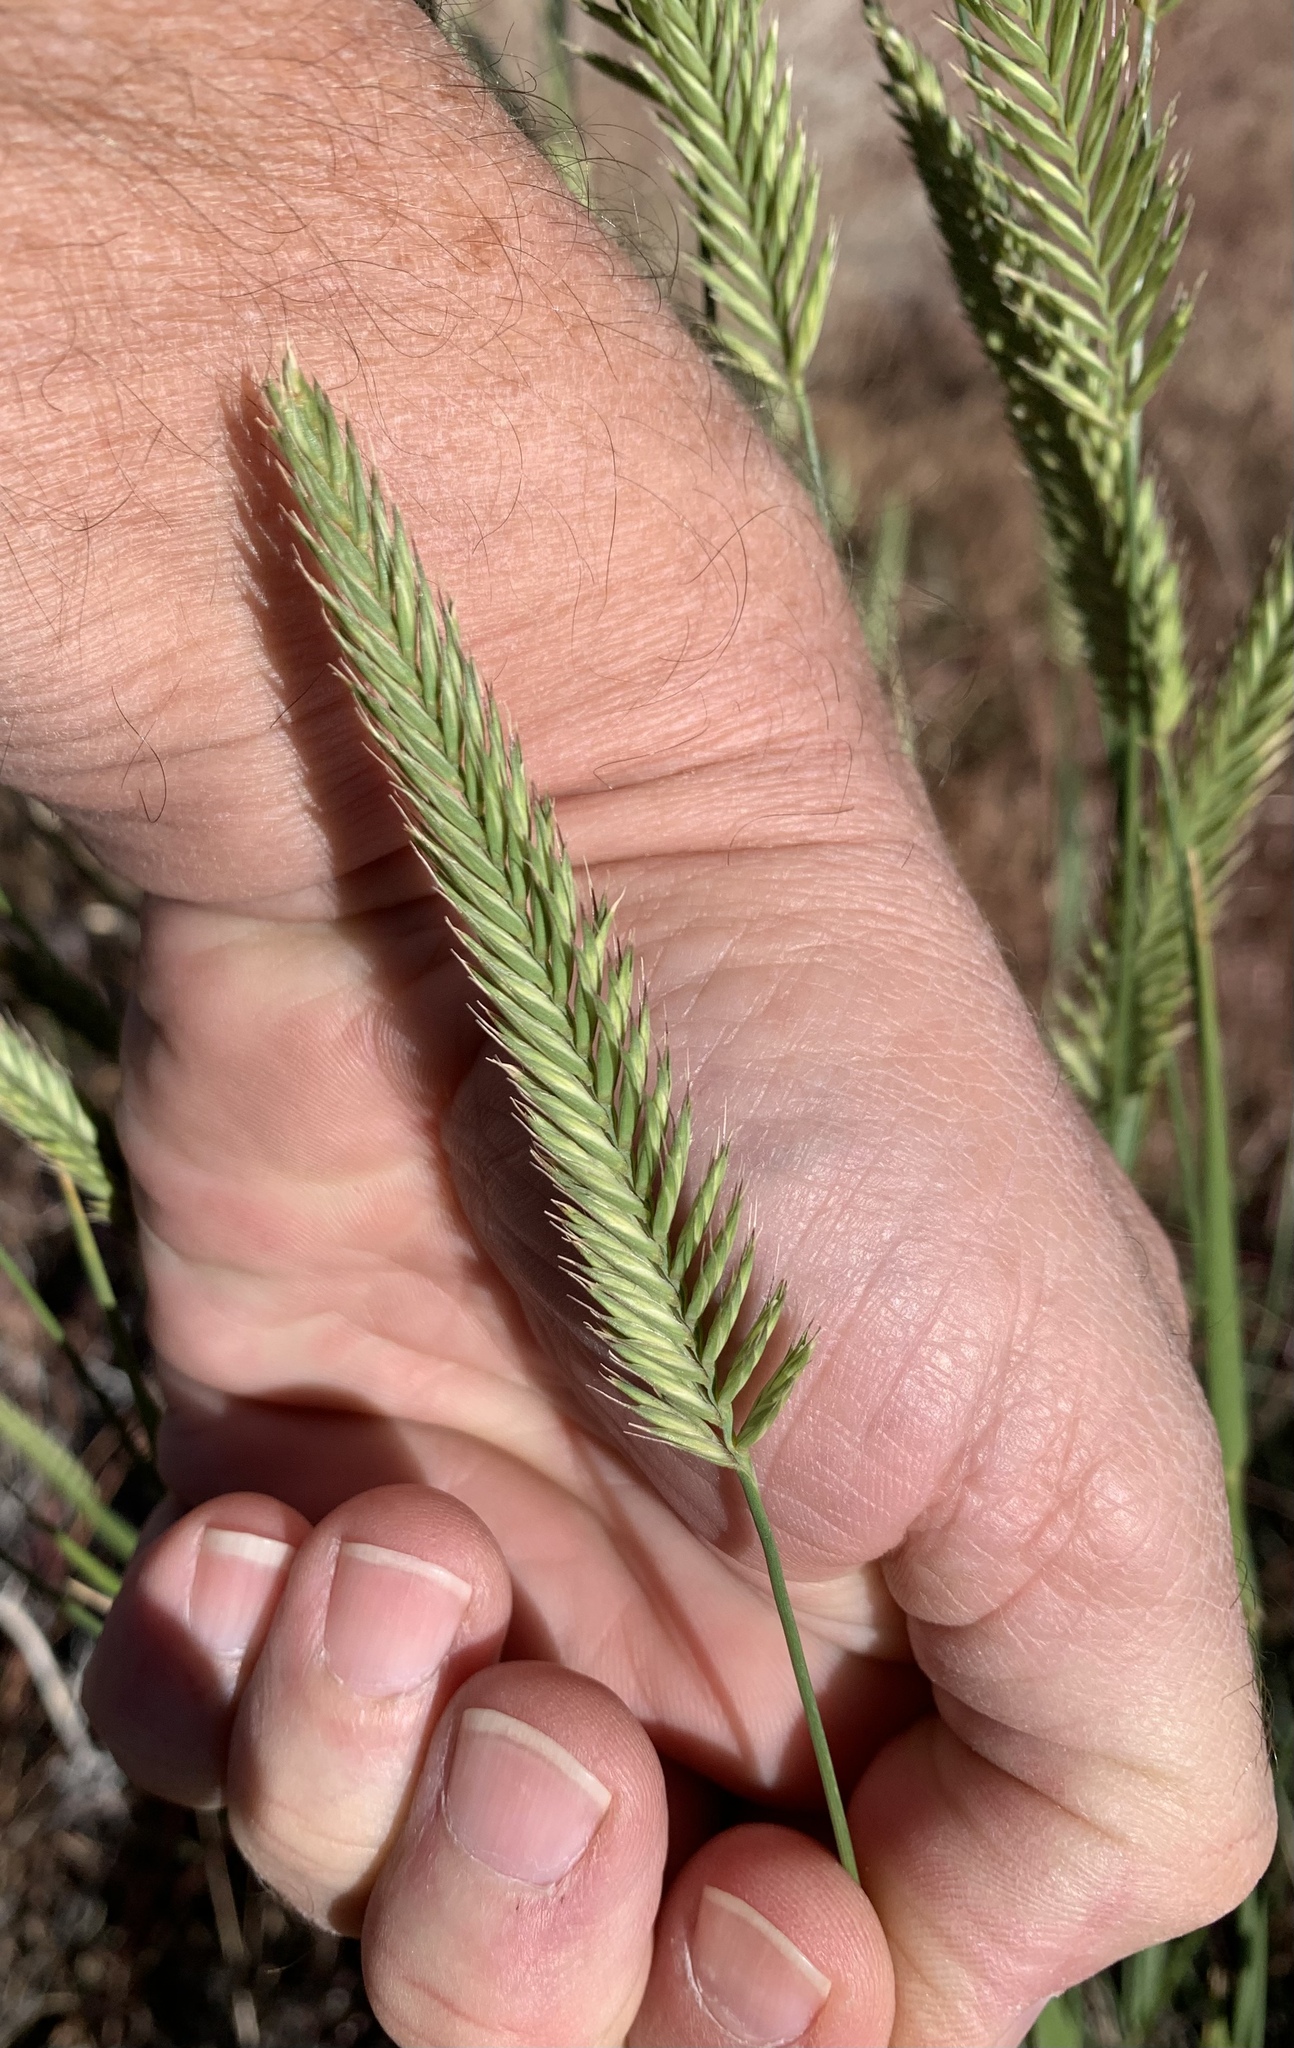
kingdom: Plantae
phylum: Tracheophyta
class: Liliopsida
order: Poales
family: Poaceae
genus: Agropyron
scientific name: Agropyron cristatum
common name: Crested wheatgrass
